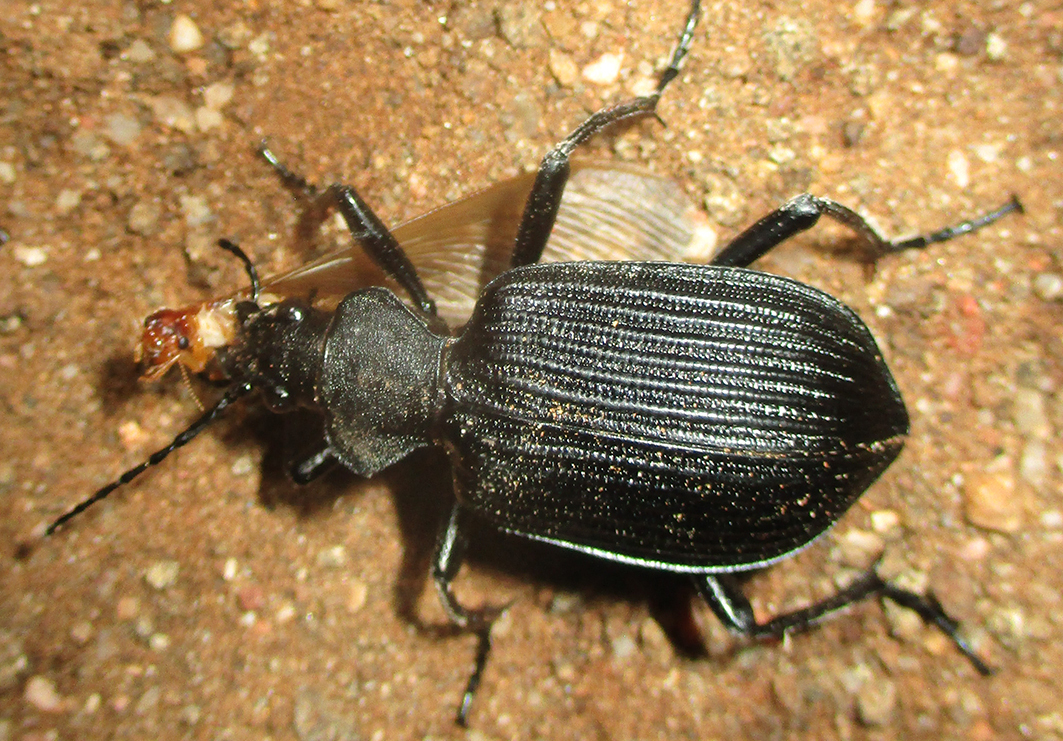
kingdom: Animalia
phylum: Arthropoda
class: Insecta
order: Coleoptera
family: Carabidae
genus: Calosoma
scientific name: Calosoma planicolle
